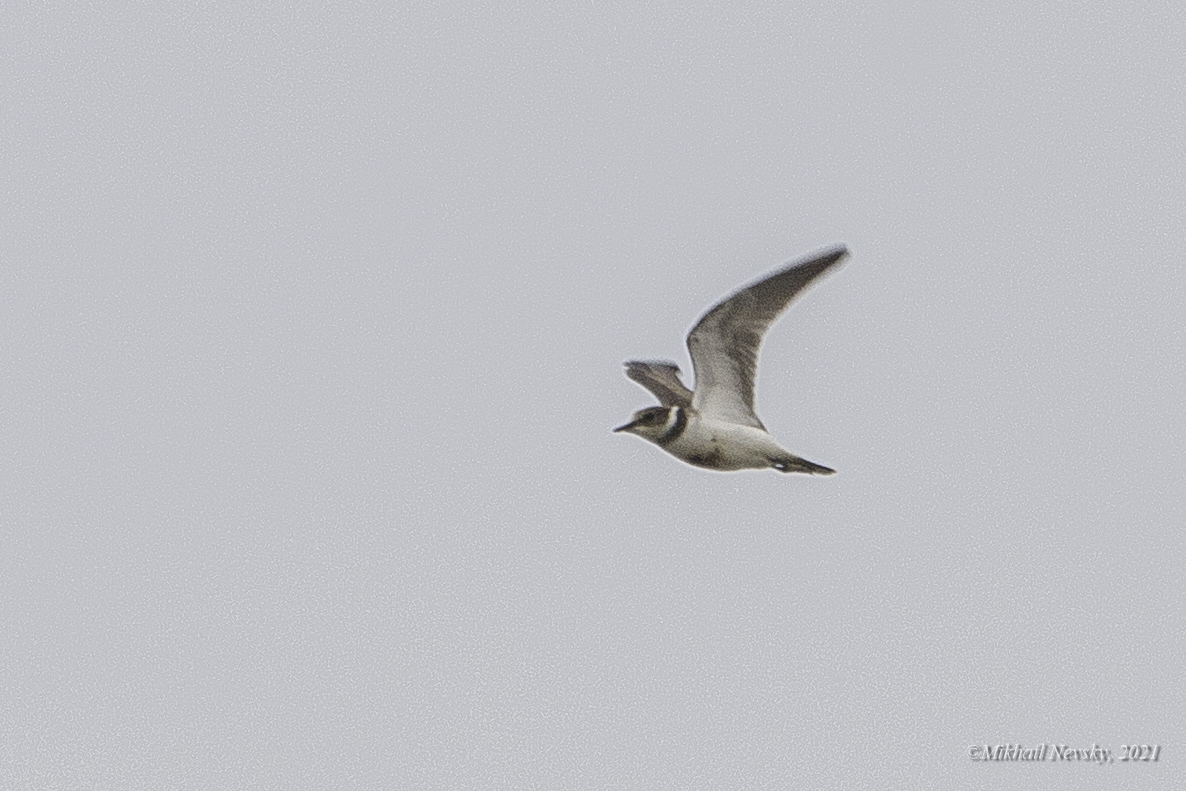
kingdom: Animalia
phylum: Chordata
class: Aves
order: Charadriiformes
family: Charadriidae
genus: Charadrius
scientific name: Charadrius hiaticula
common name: Common ringed plover
